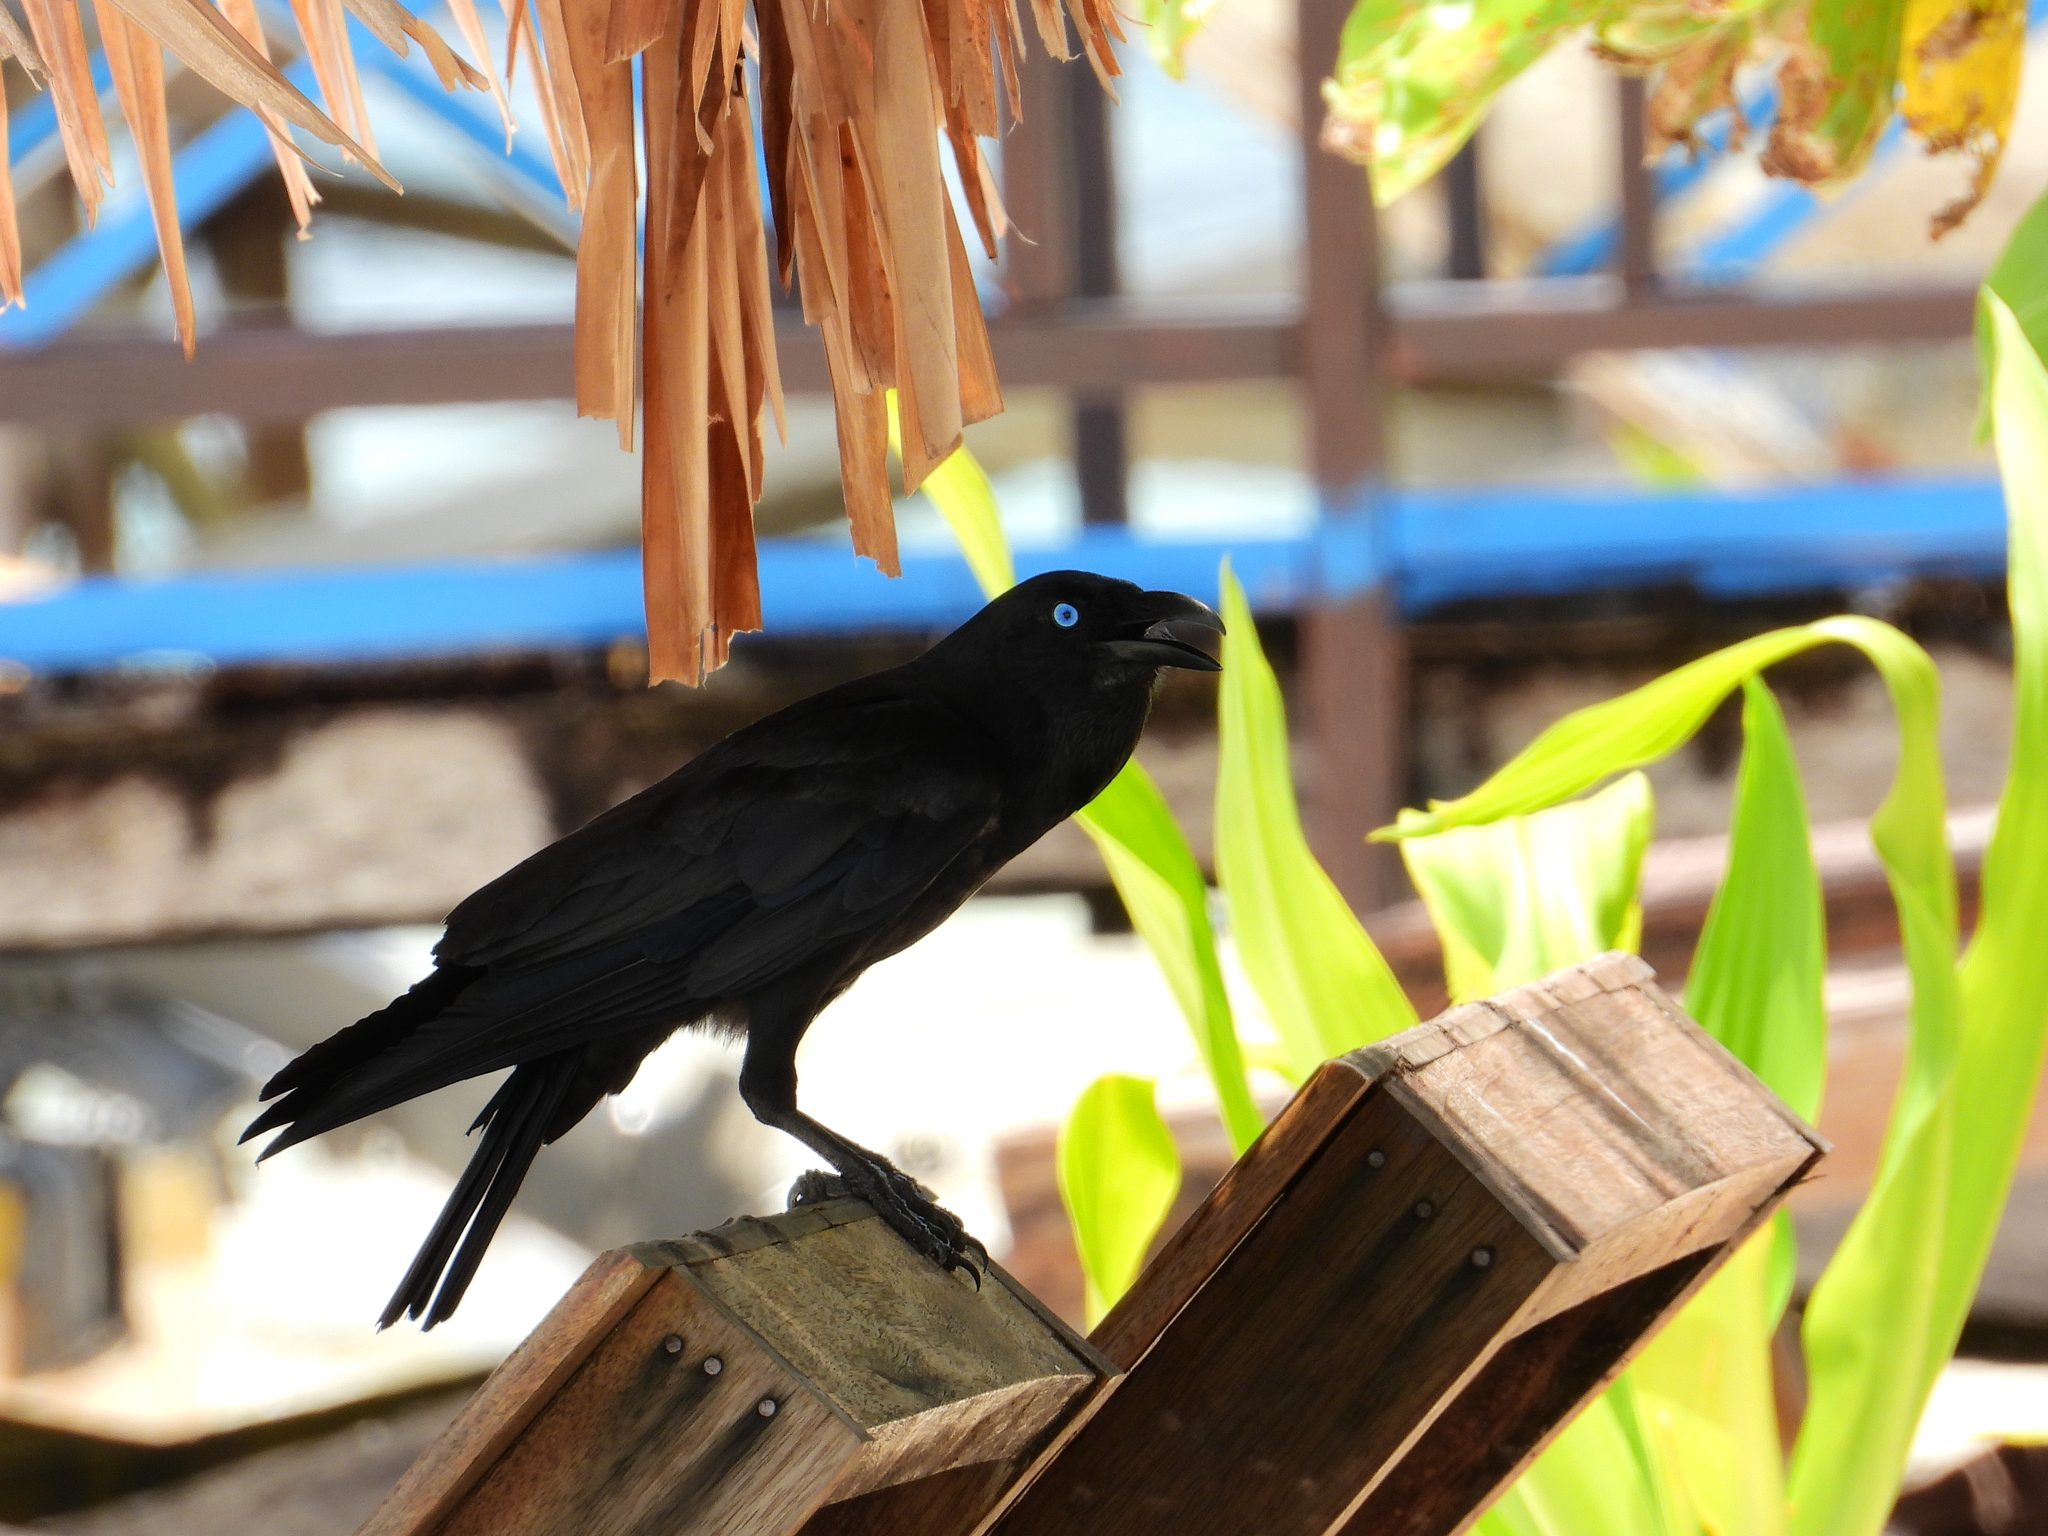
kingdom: Animalia
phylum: Chordata
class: Aves
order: Passeriformes
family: Corvidae
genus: Corvus
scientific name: Corvus orru
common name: Torresian crow
